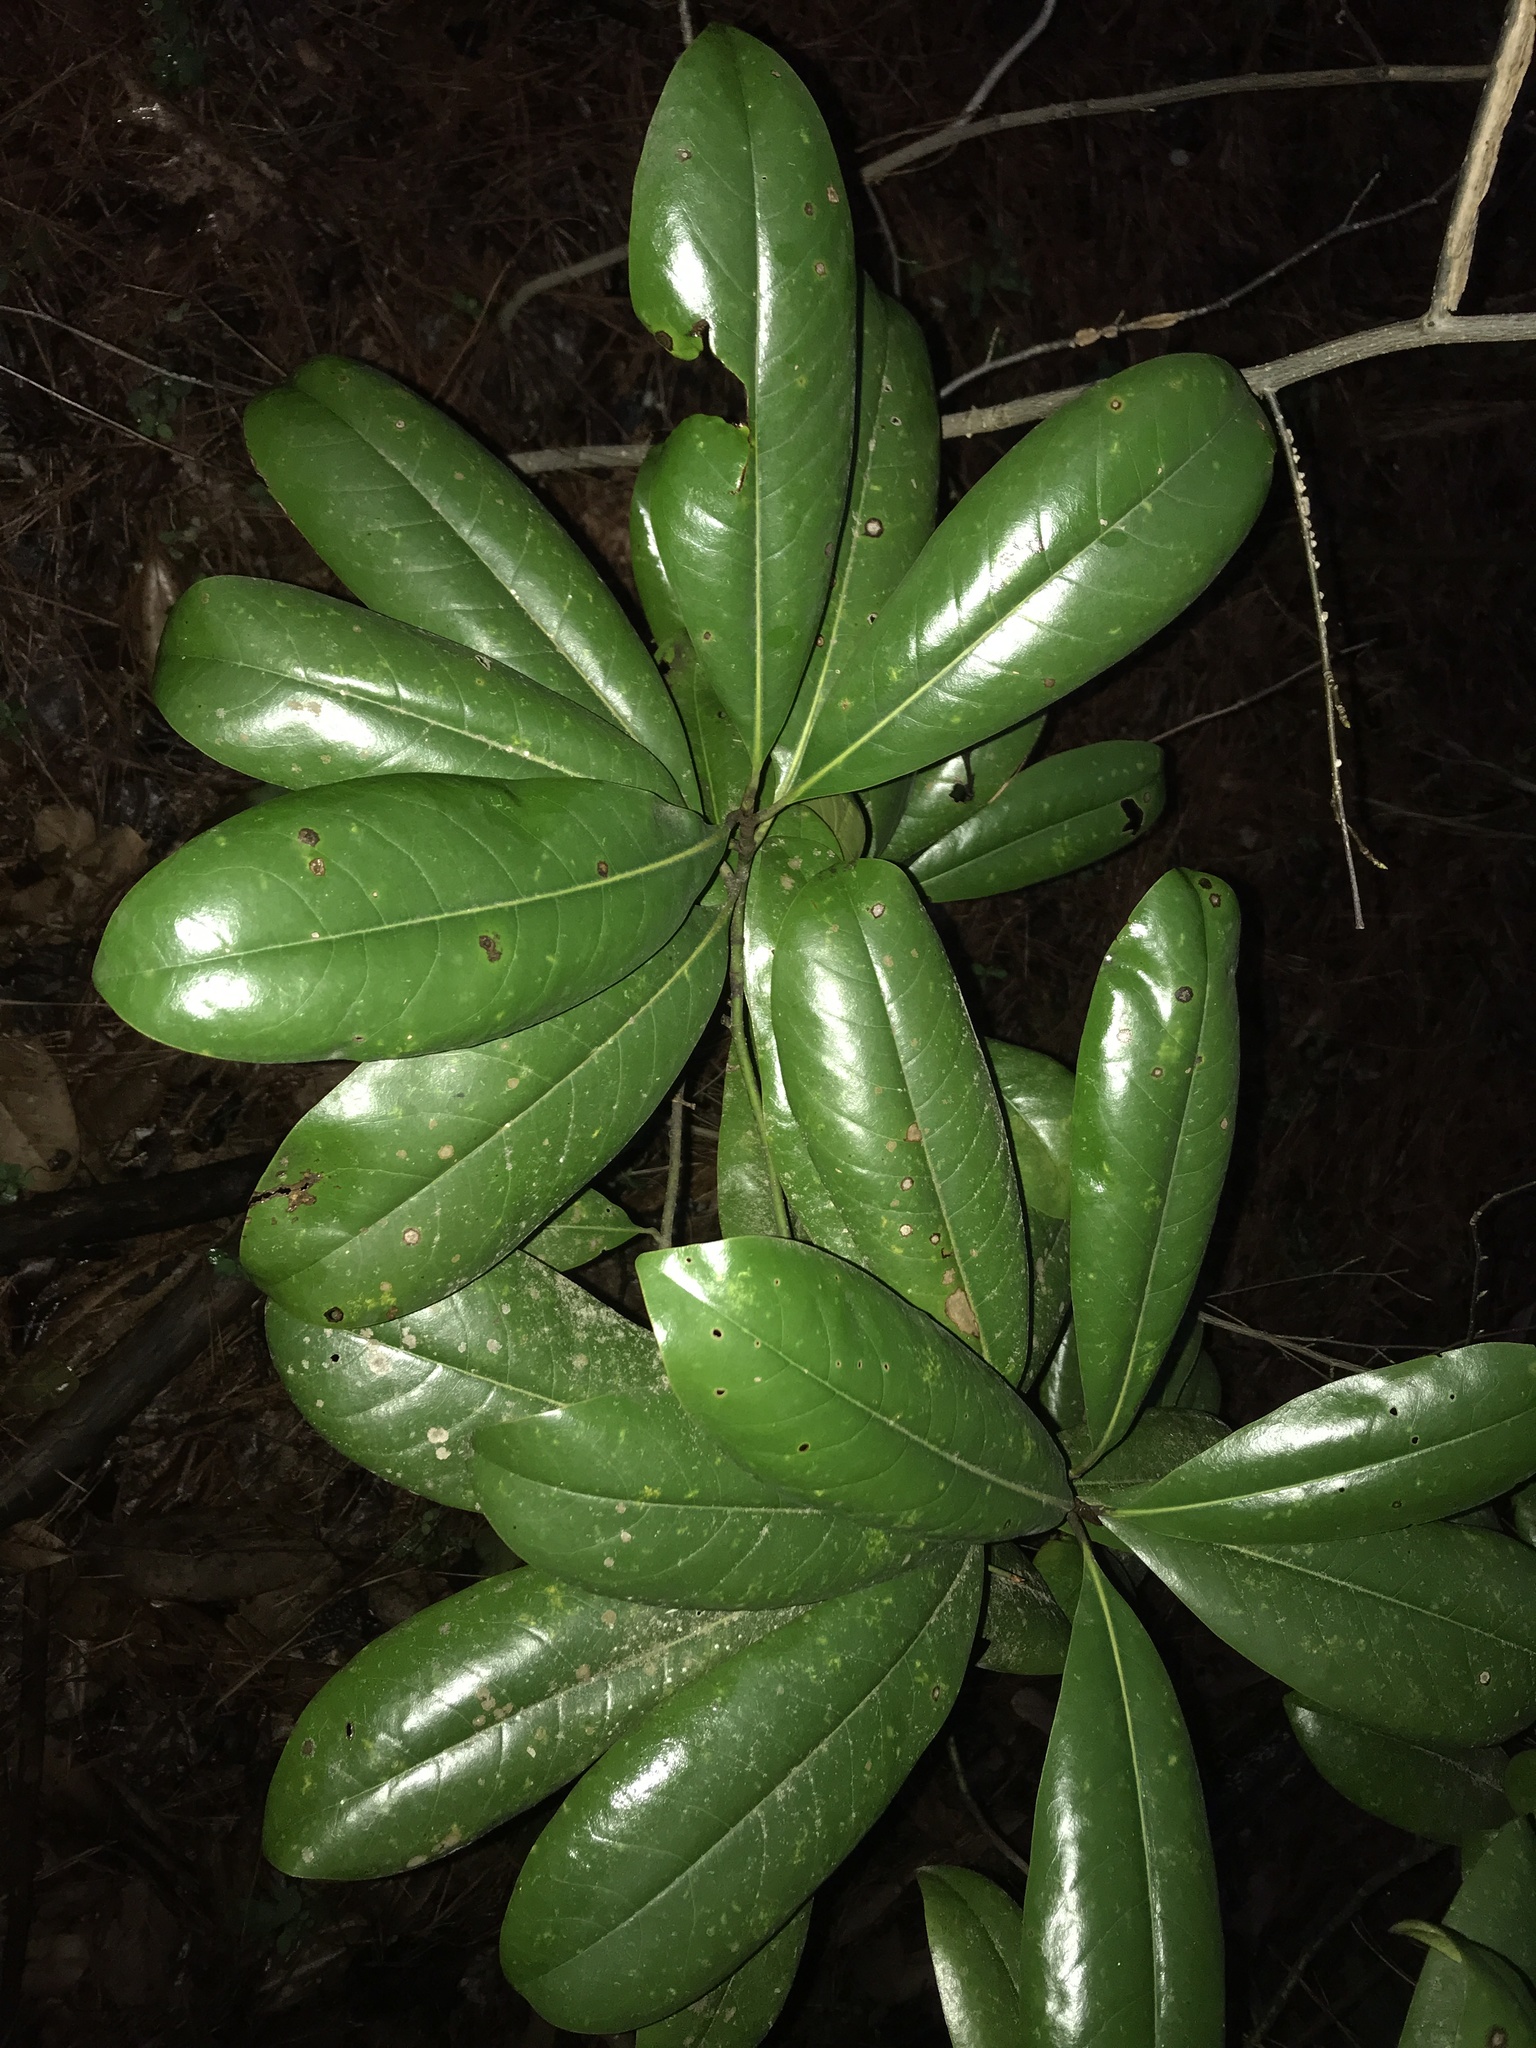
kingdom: Plantae
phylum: Tracheophyta
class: Magnoliopsida
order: Magnoliales
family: Magnoliaceae
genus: Magnolia
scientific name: Magnolia grandiflora
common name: Southern magnolia
